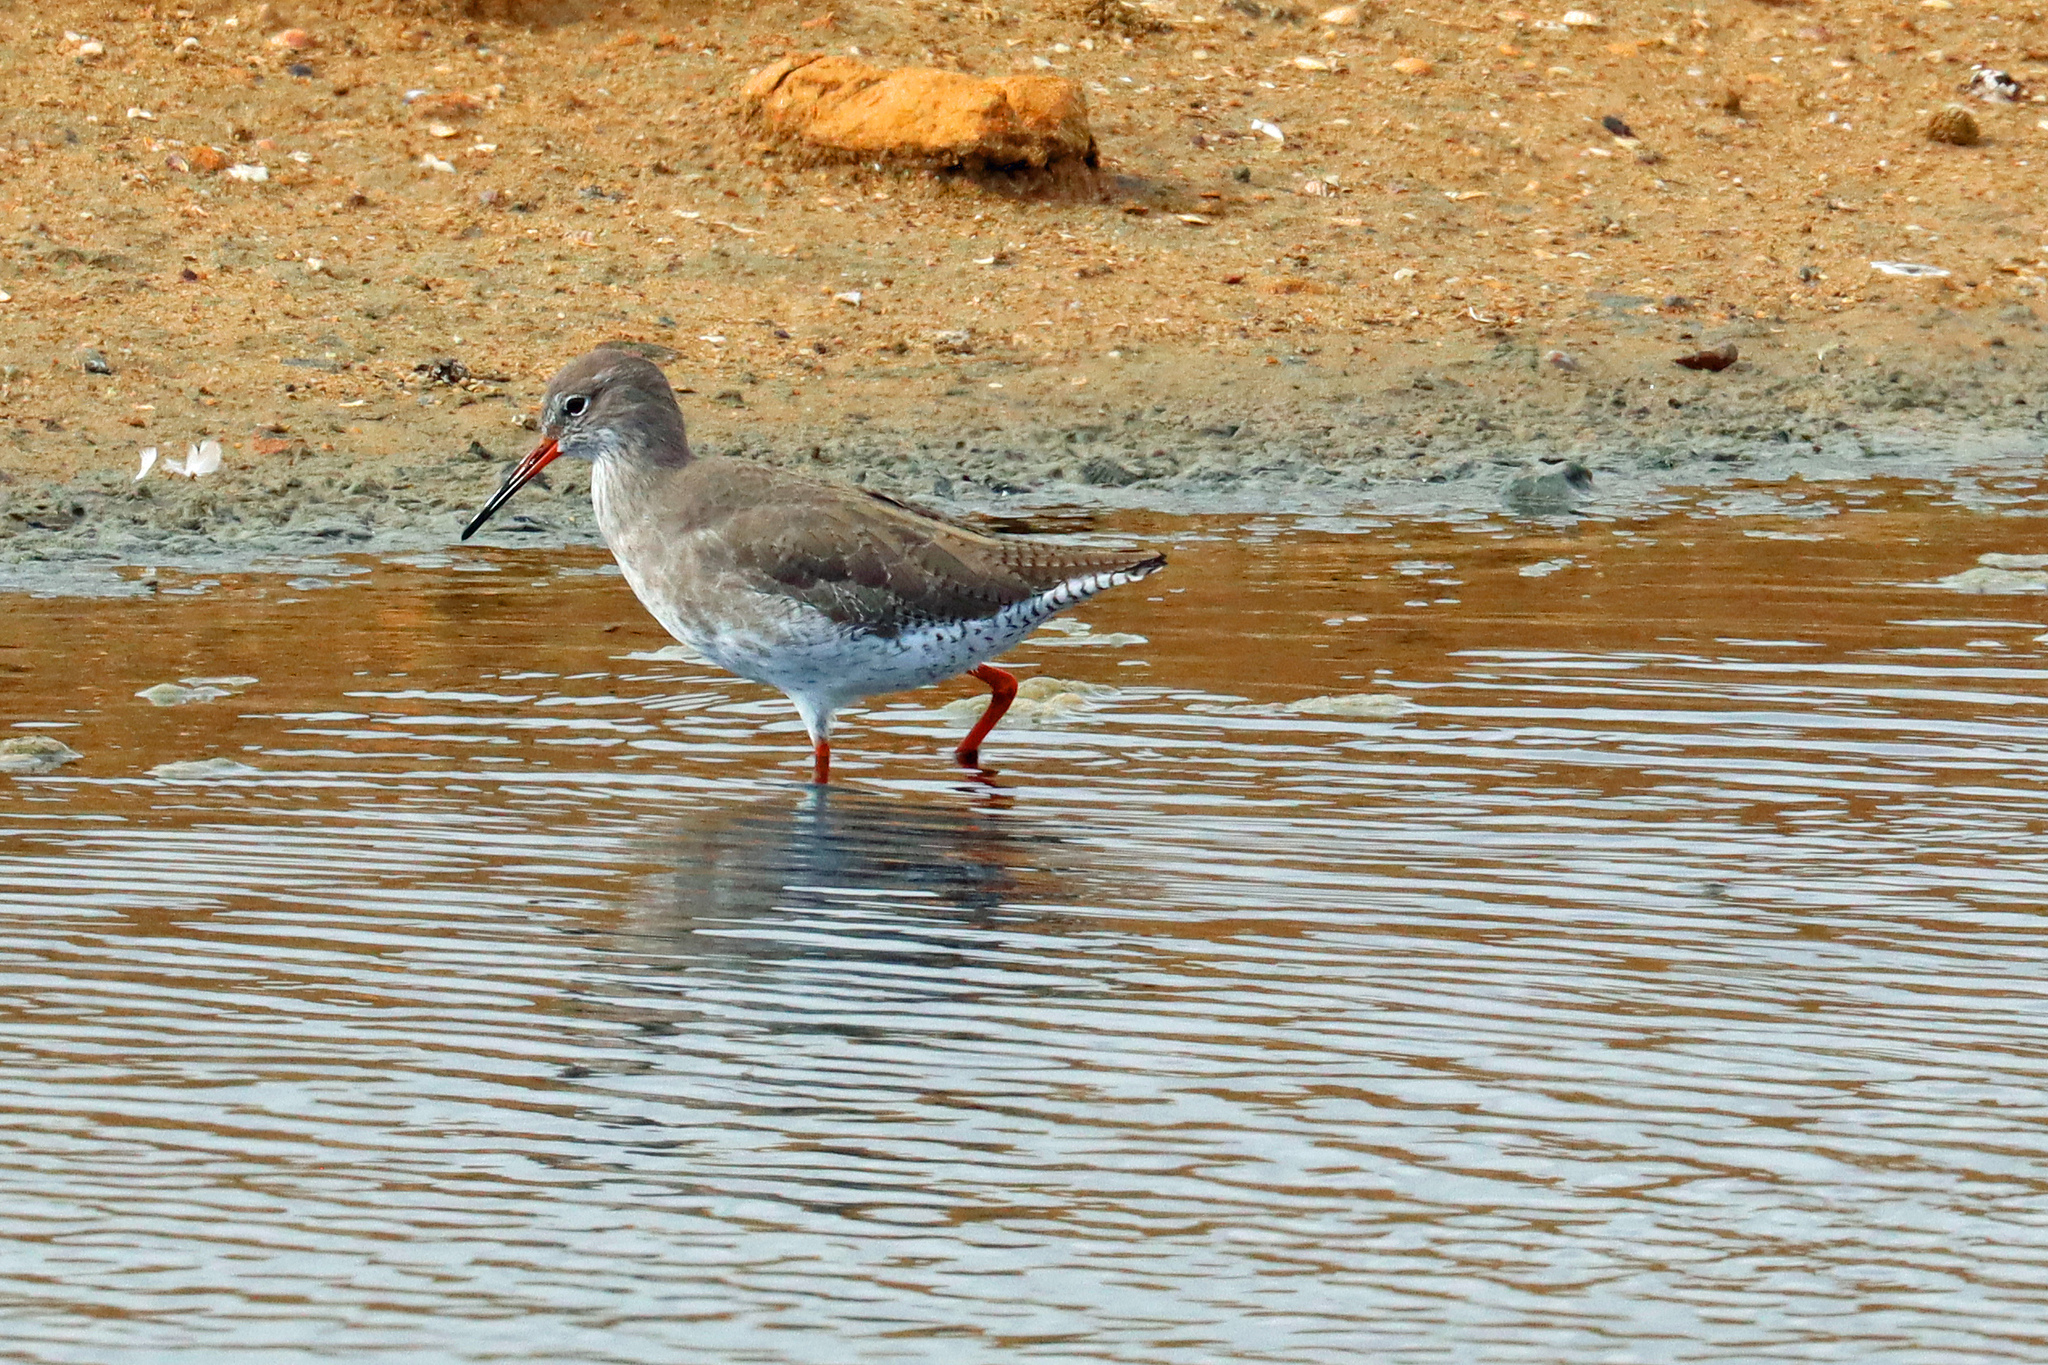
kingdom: Animalia
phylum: Chordata
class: Aves
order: Charadriiformes
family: Scolopacidae
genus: Tringa
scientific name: Tringa totanus
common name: Common redshank
